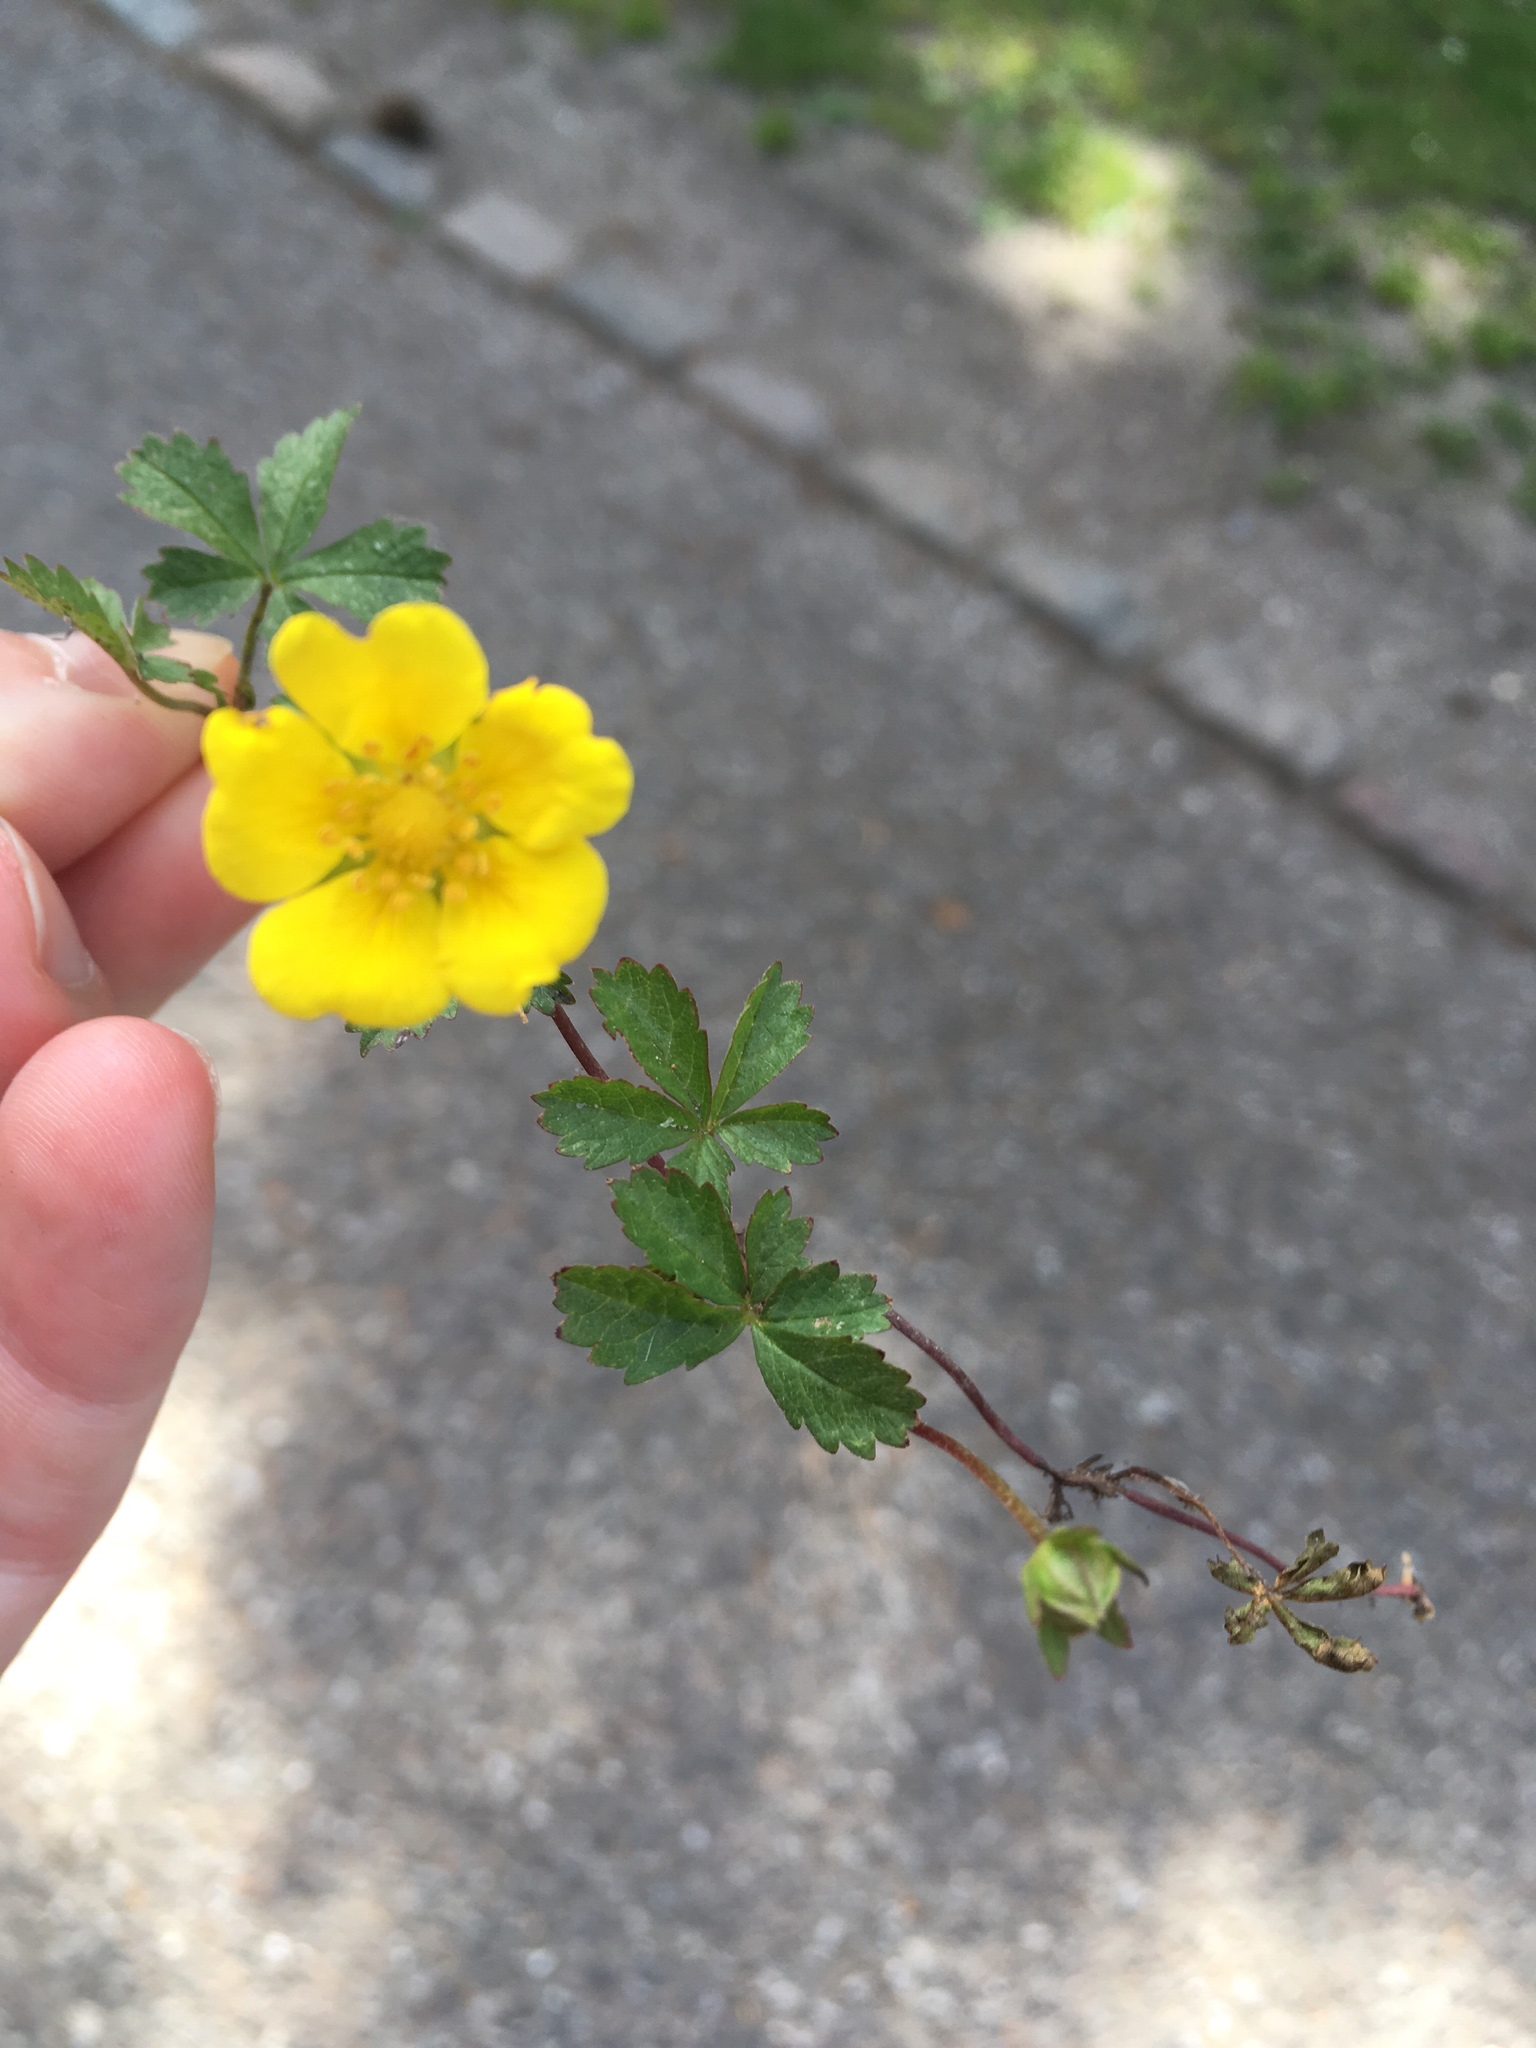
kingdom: Plantae
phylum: Tracheophyta
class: Magnoliopsida
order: Rosales
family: Rosaceae
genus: Potentilla
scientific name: Potentilla reptans
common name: Creeping cinquefoil
